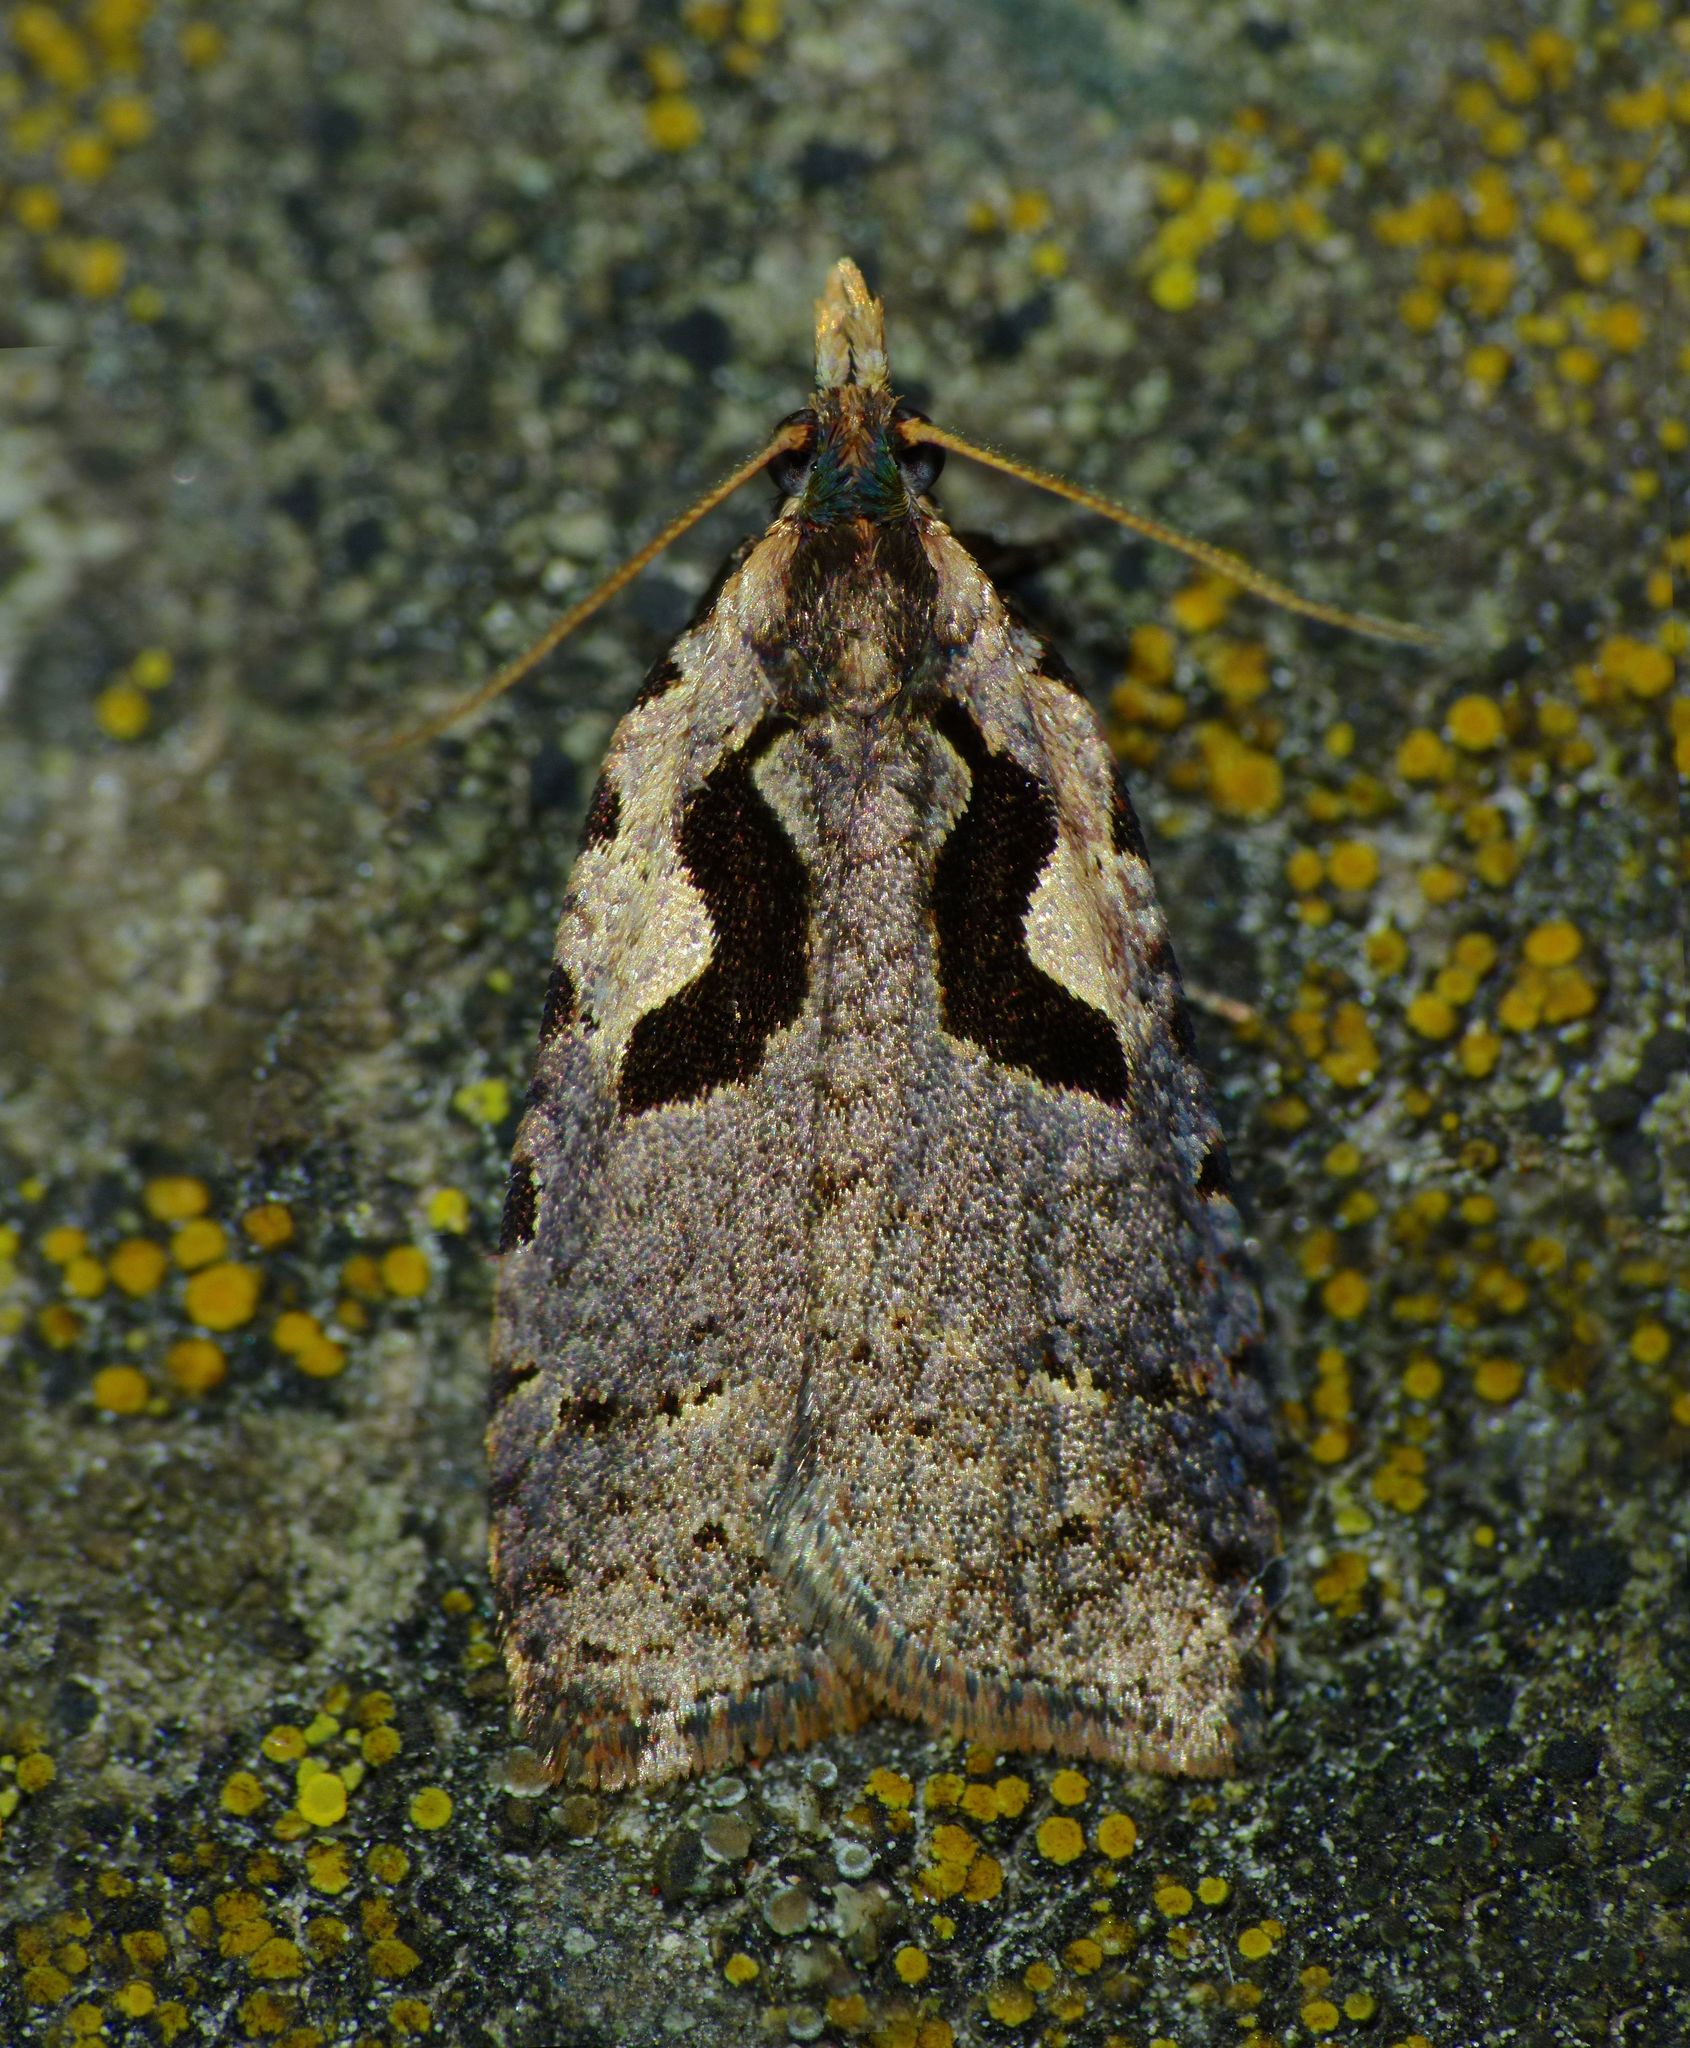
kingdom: Animalia
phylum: Arthropoda
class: Insecta
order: Lepidoptera
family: Tortricidae
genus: Cnephasia
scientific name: Cnephasia jactatana
